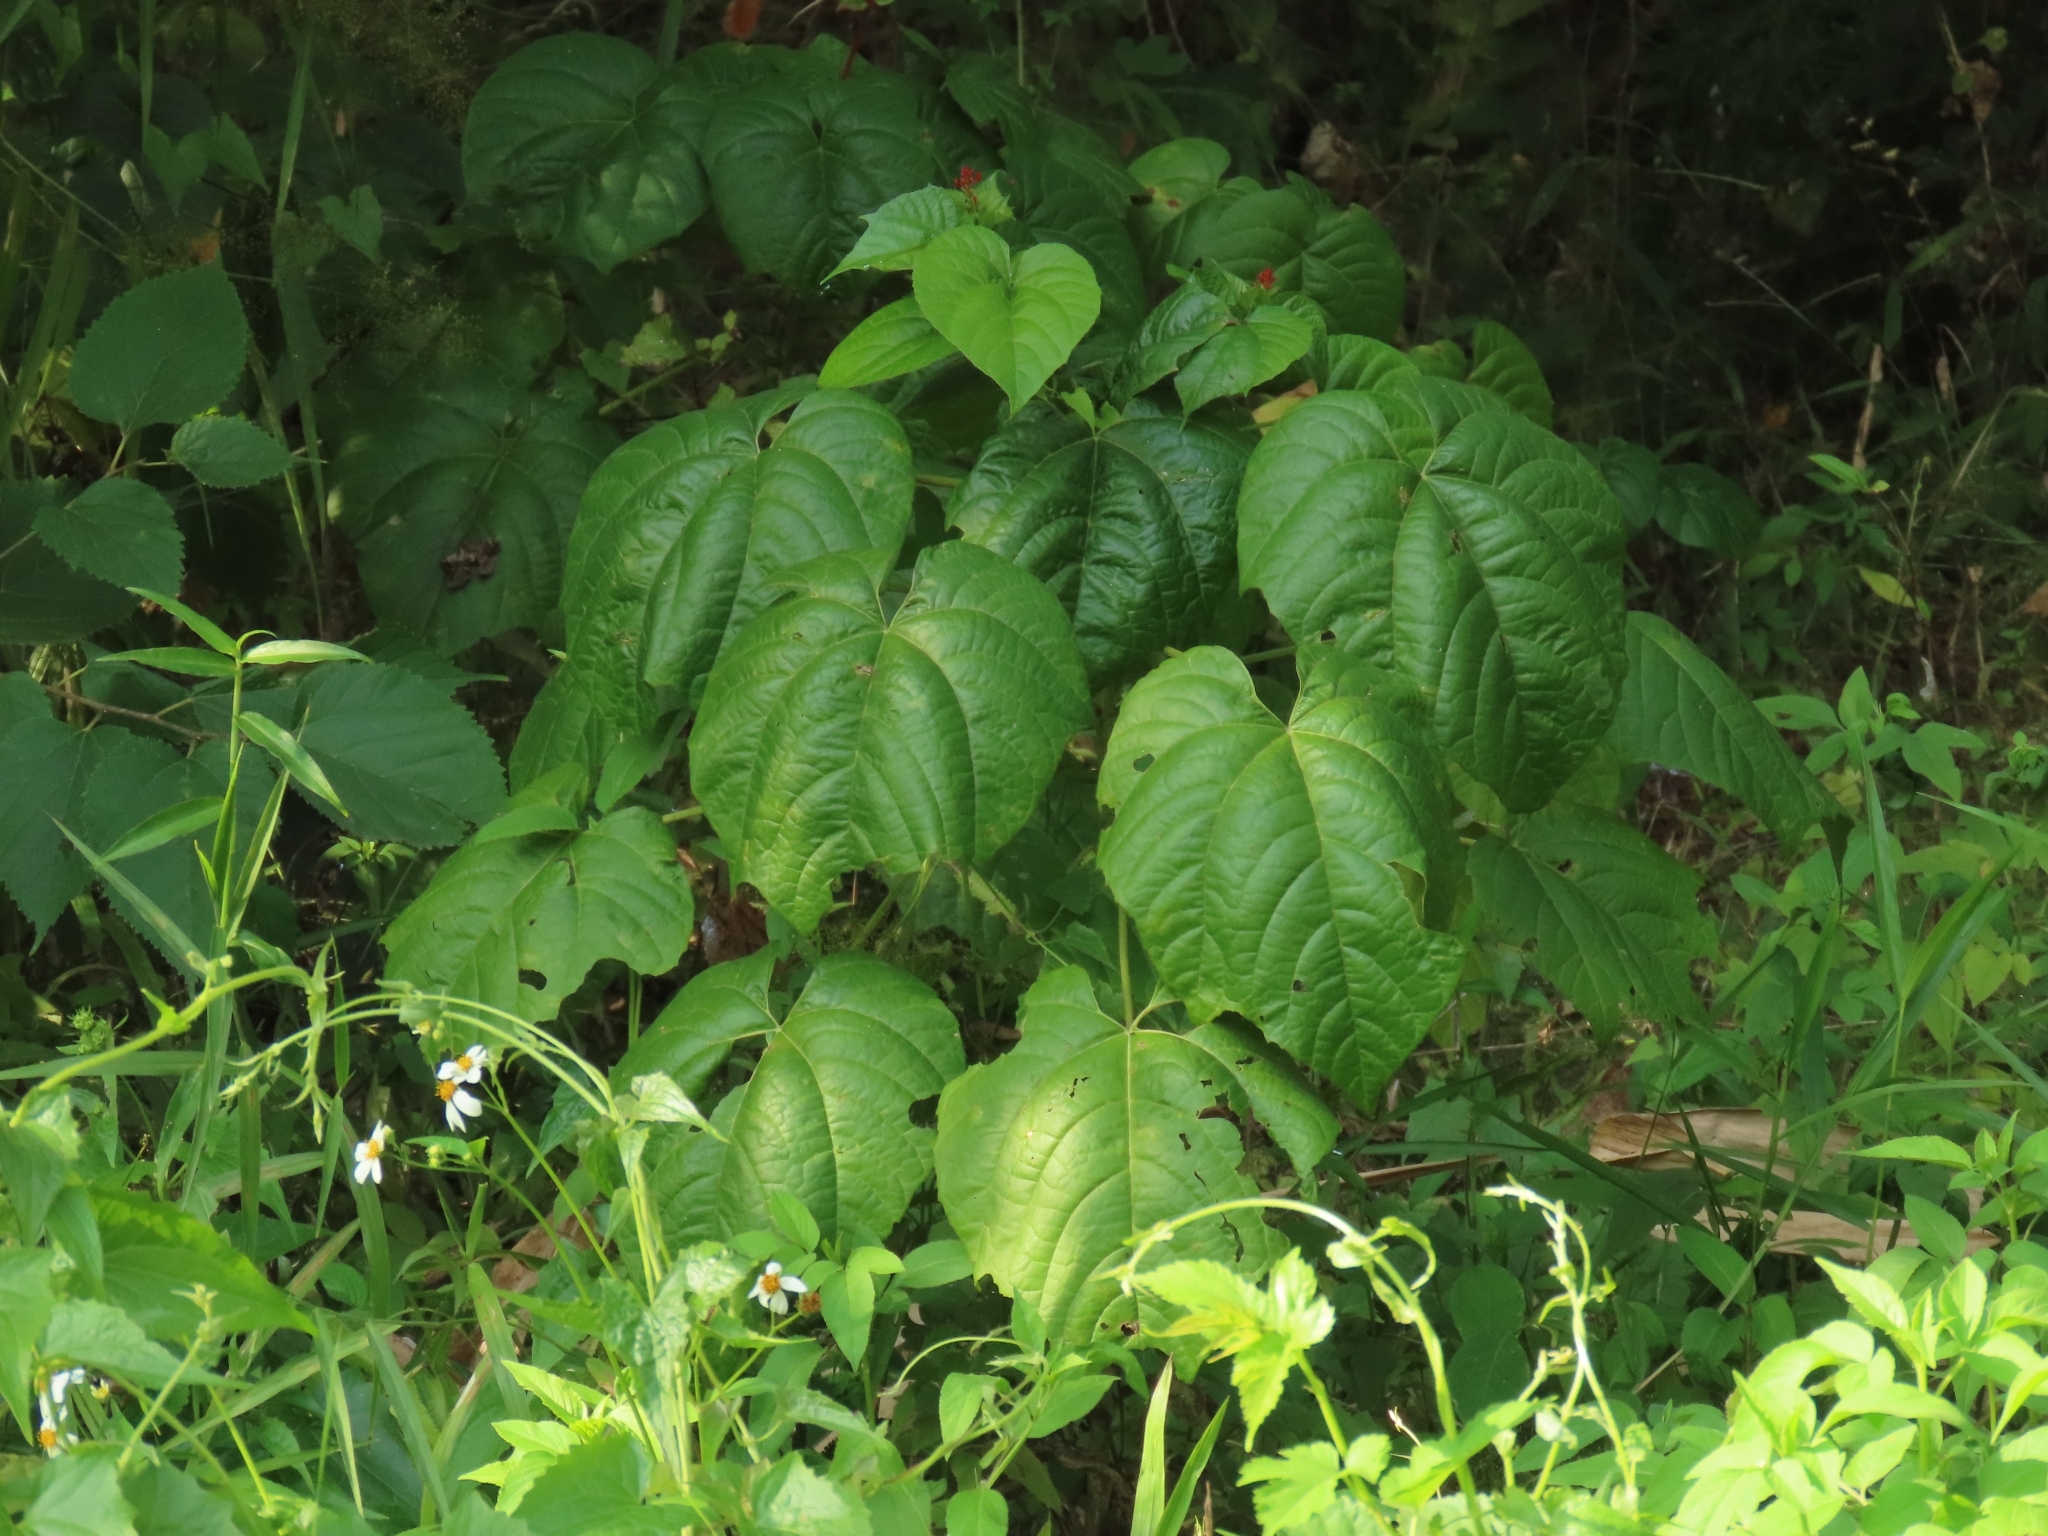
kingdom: Plantae
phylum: Tracheophyta
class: Magnoliopsida
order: Lamiales
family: Lamiaceae
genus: Clerodendrum
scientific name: Clerodendrum japonicum
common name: Japanese glorybower
